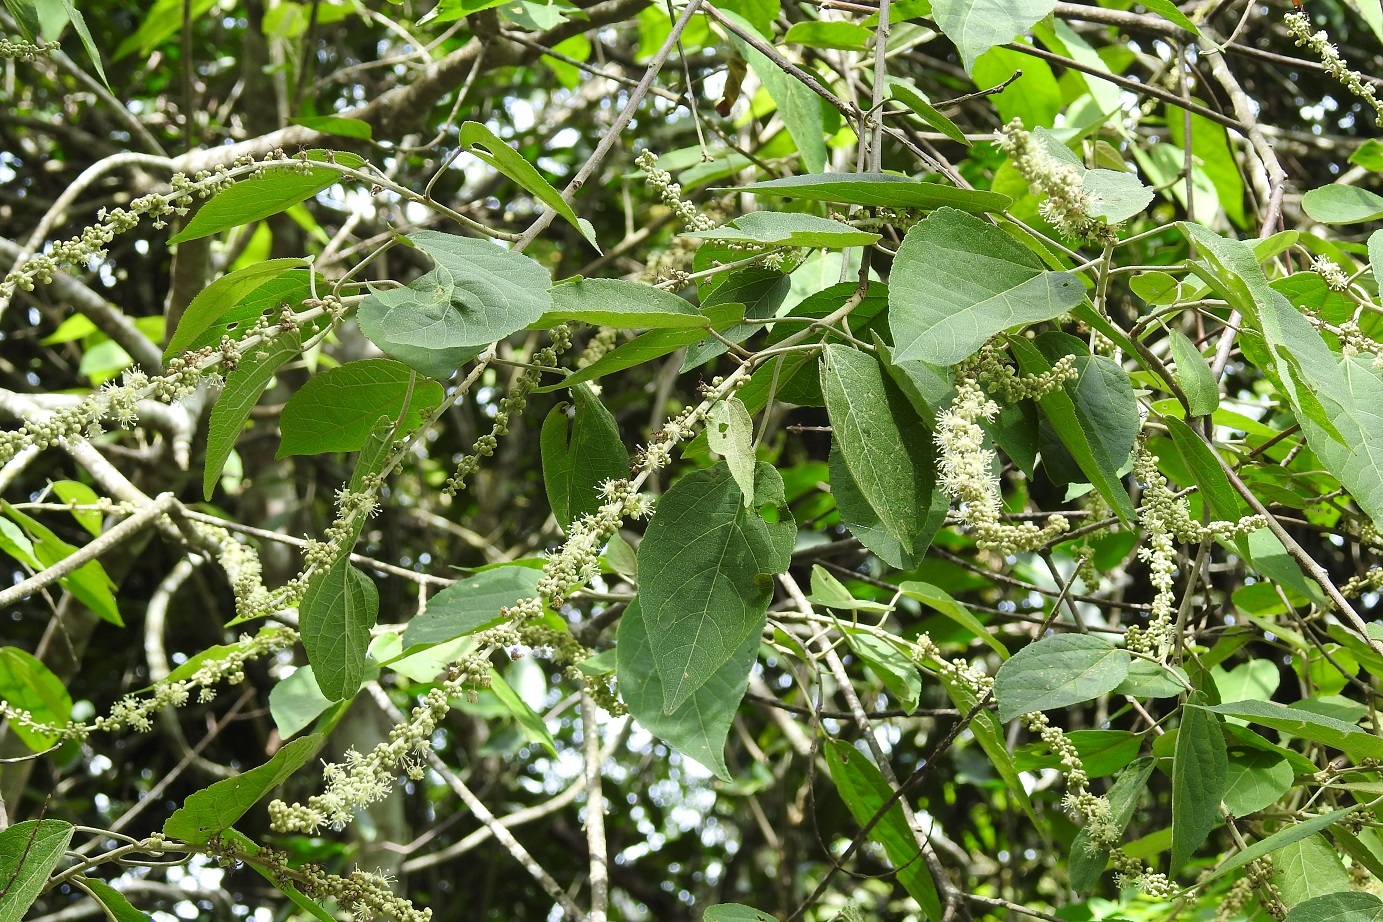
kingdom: Plantae
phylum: Tracheophyta
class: Magnoliopsida
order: Malpighiales
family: Euphorbiaceae
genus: Croton
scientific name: Croton mexicanus
